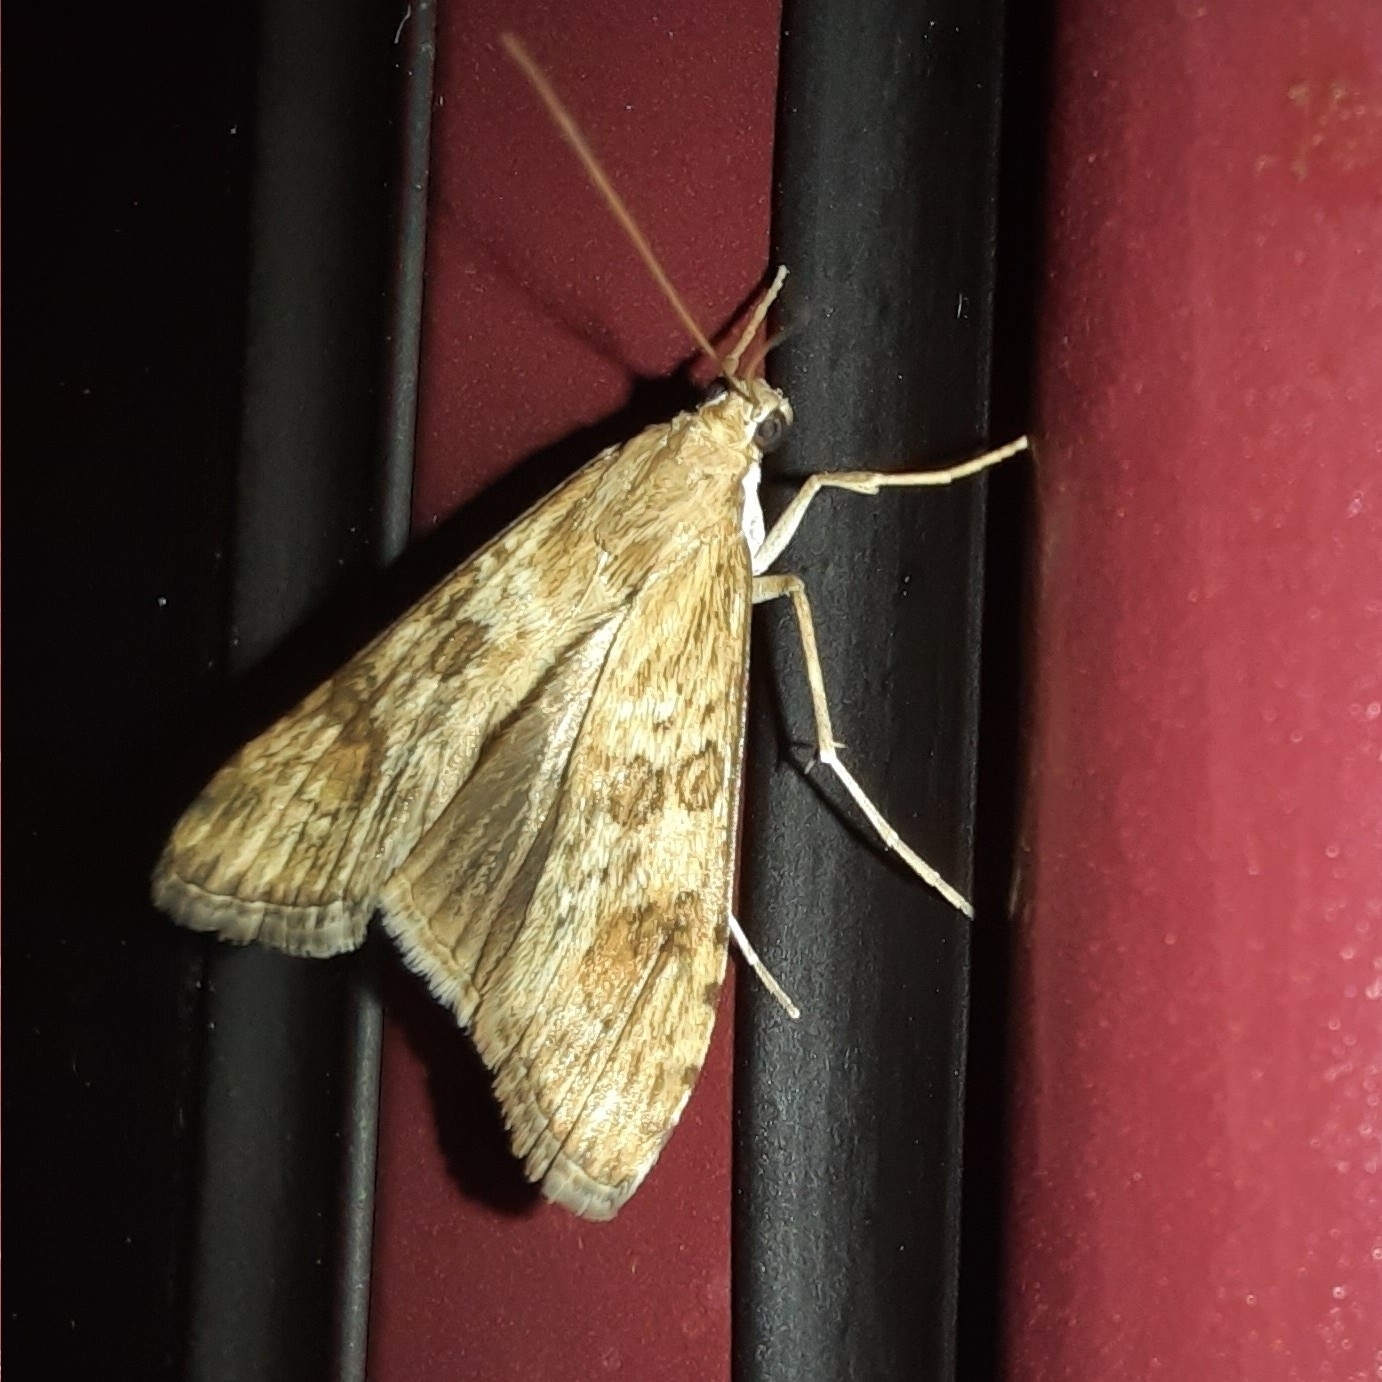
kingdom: Animalia
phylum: Arthropoda
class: Insecta
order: Lepidoptera
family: Crambidae
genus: Nomophila
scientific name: Nomophila noctuella
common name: Rush veneer
